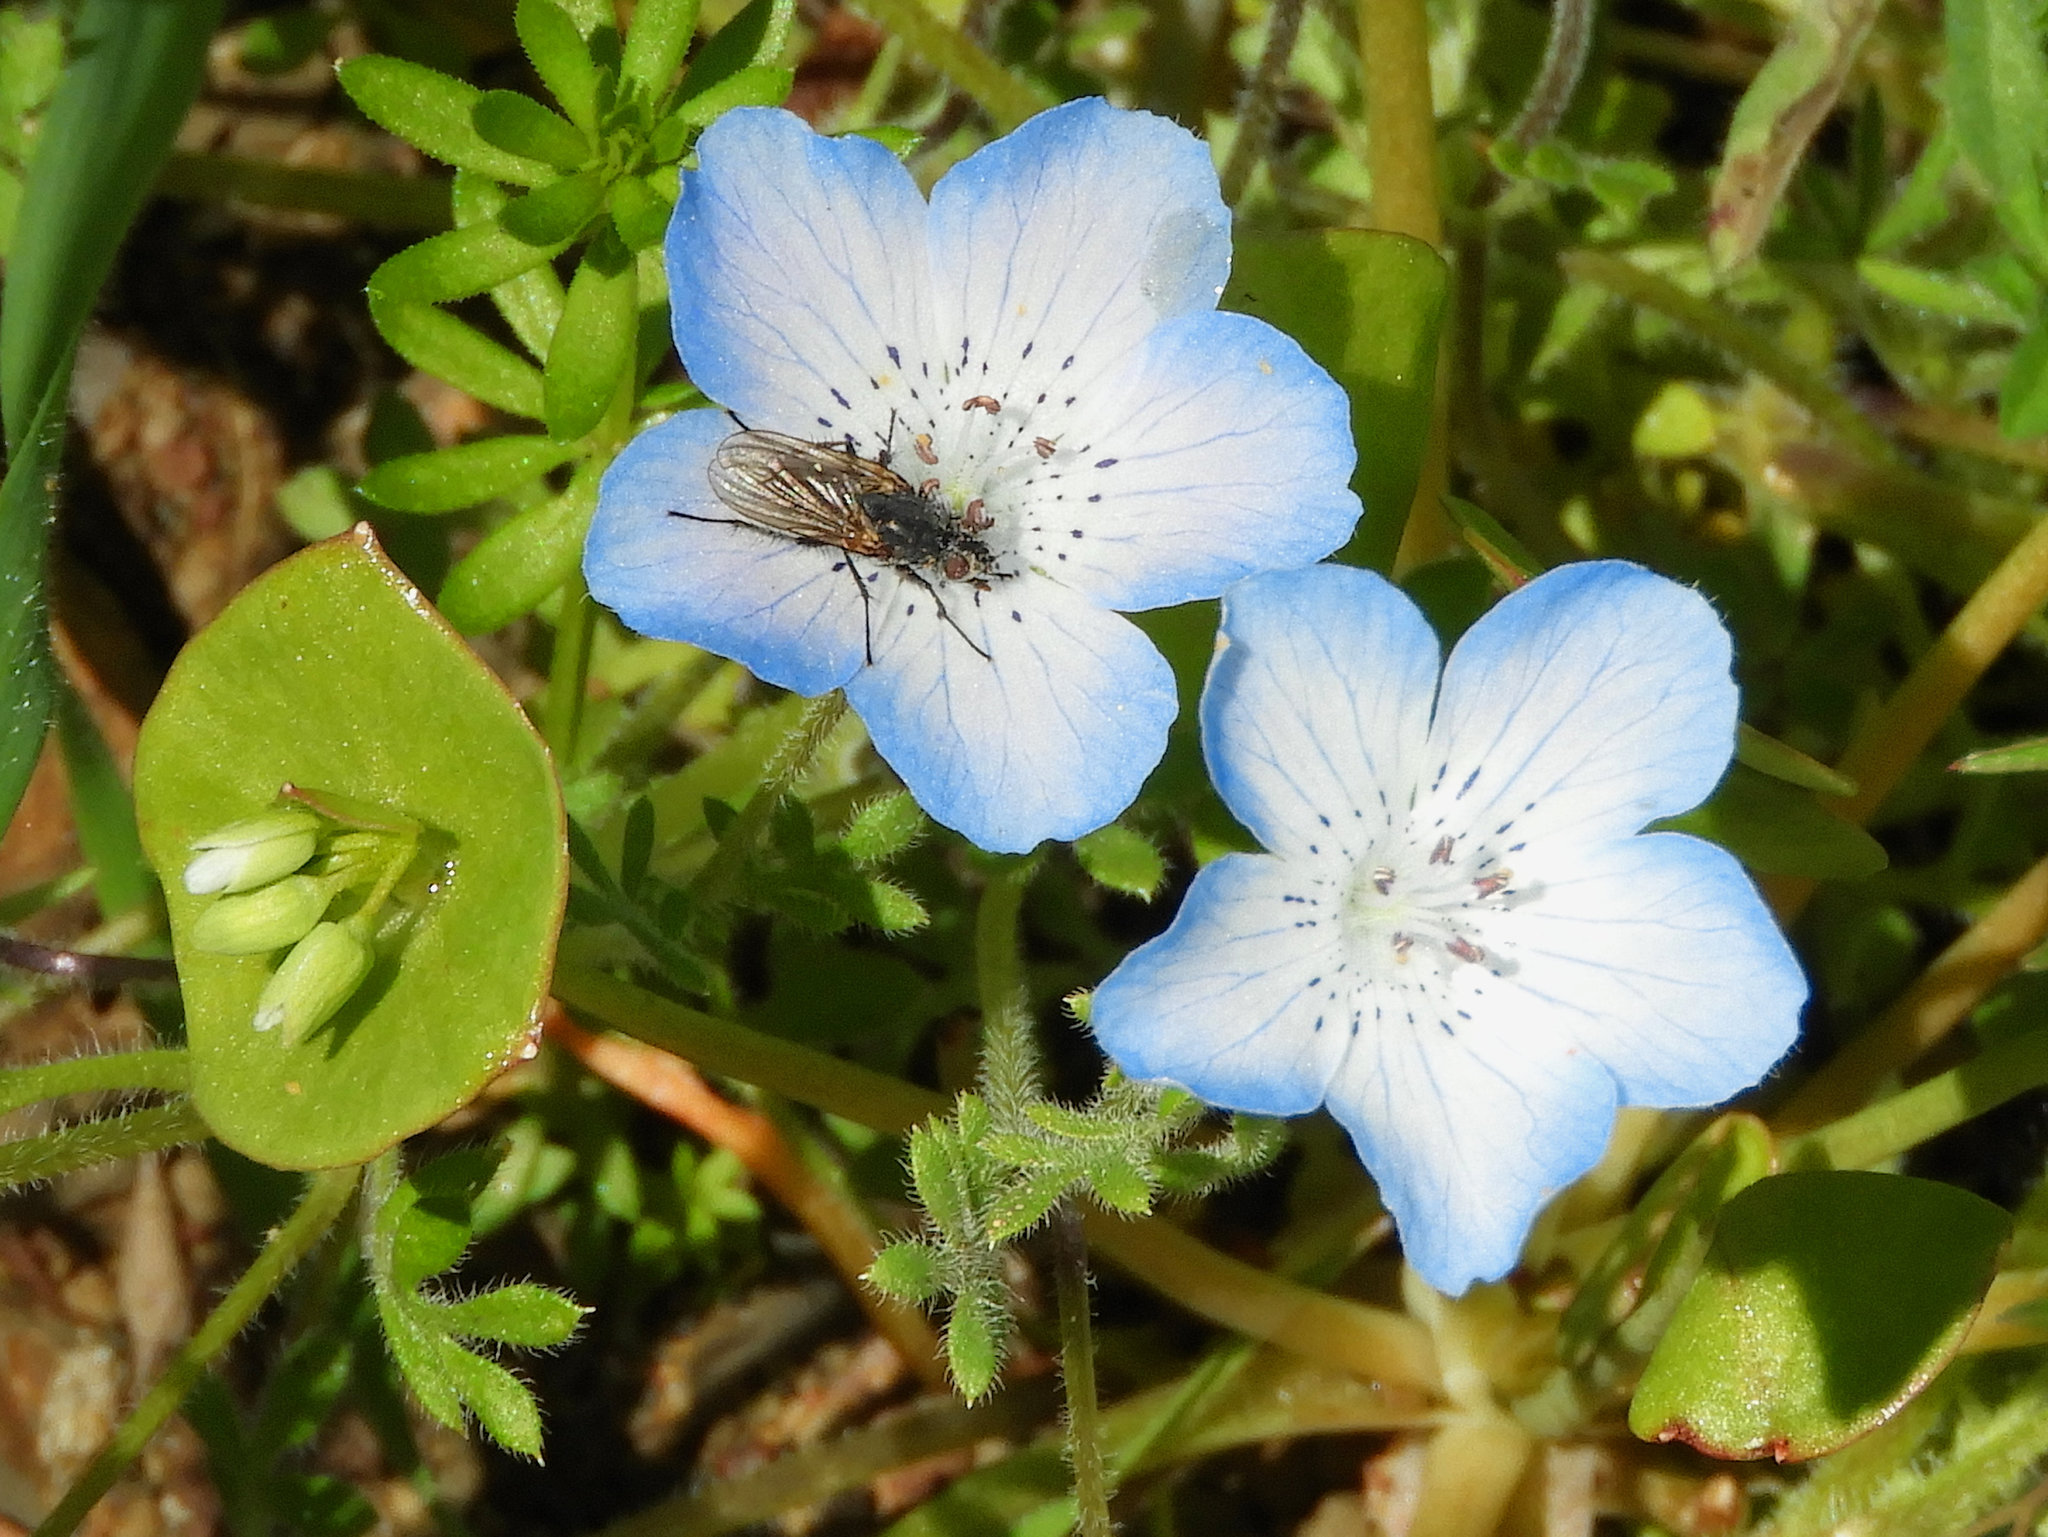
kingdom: Plantae
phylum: Tracheophyta
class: Magnoliopsida
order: Boraginales
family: Hydrophyllaceae
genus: Nemophila
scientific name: Nemophila menziesii
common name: Baby's-blue-eyes
